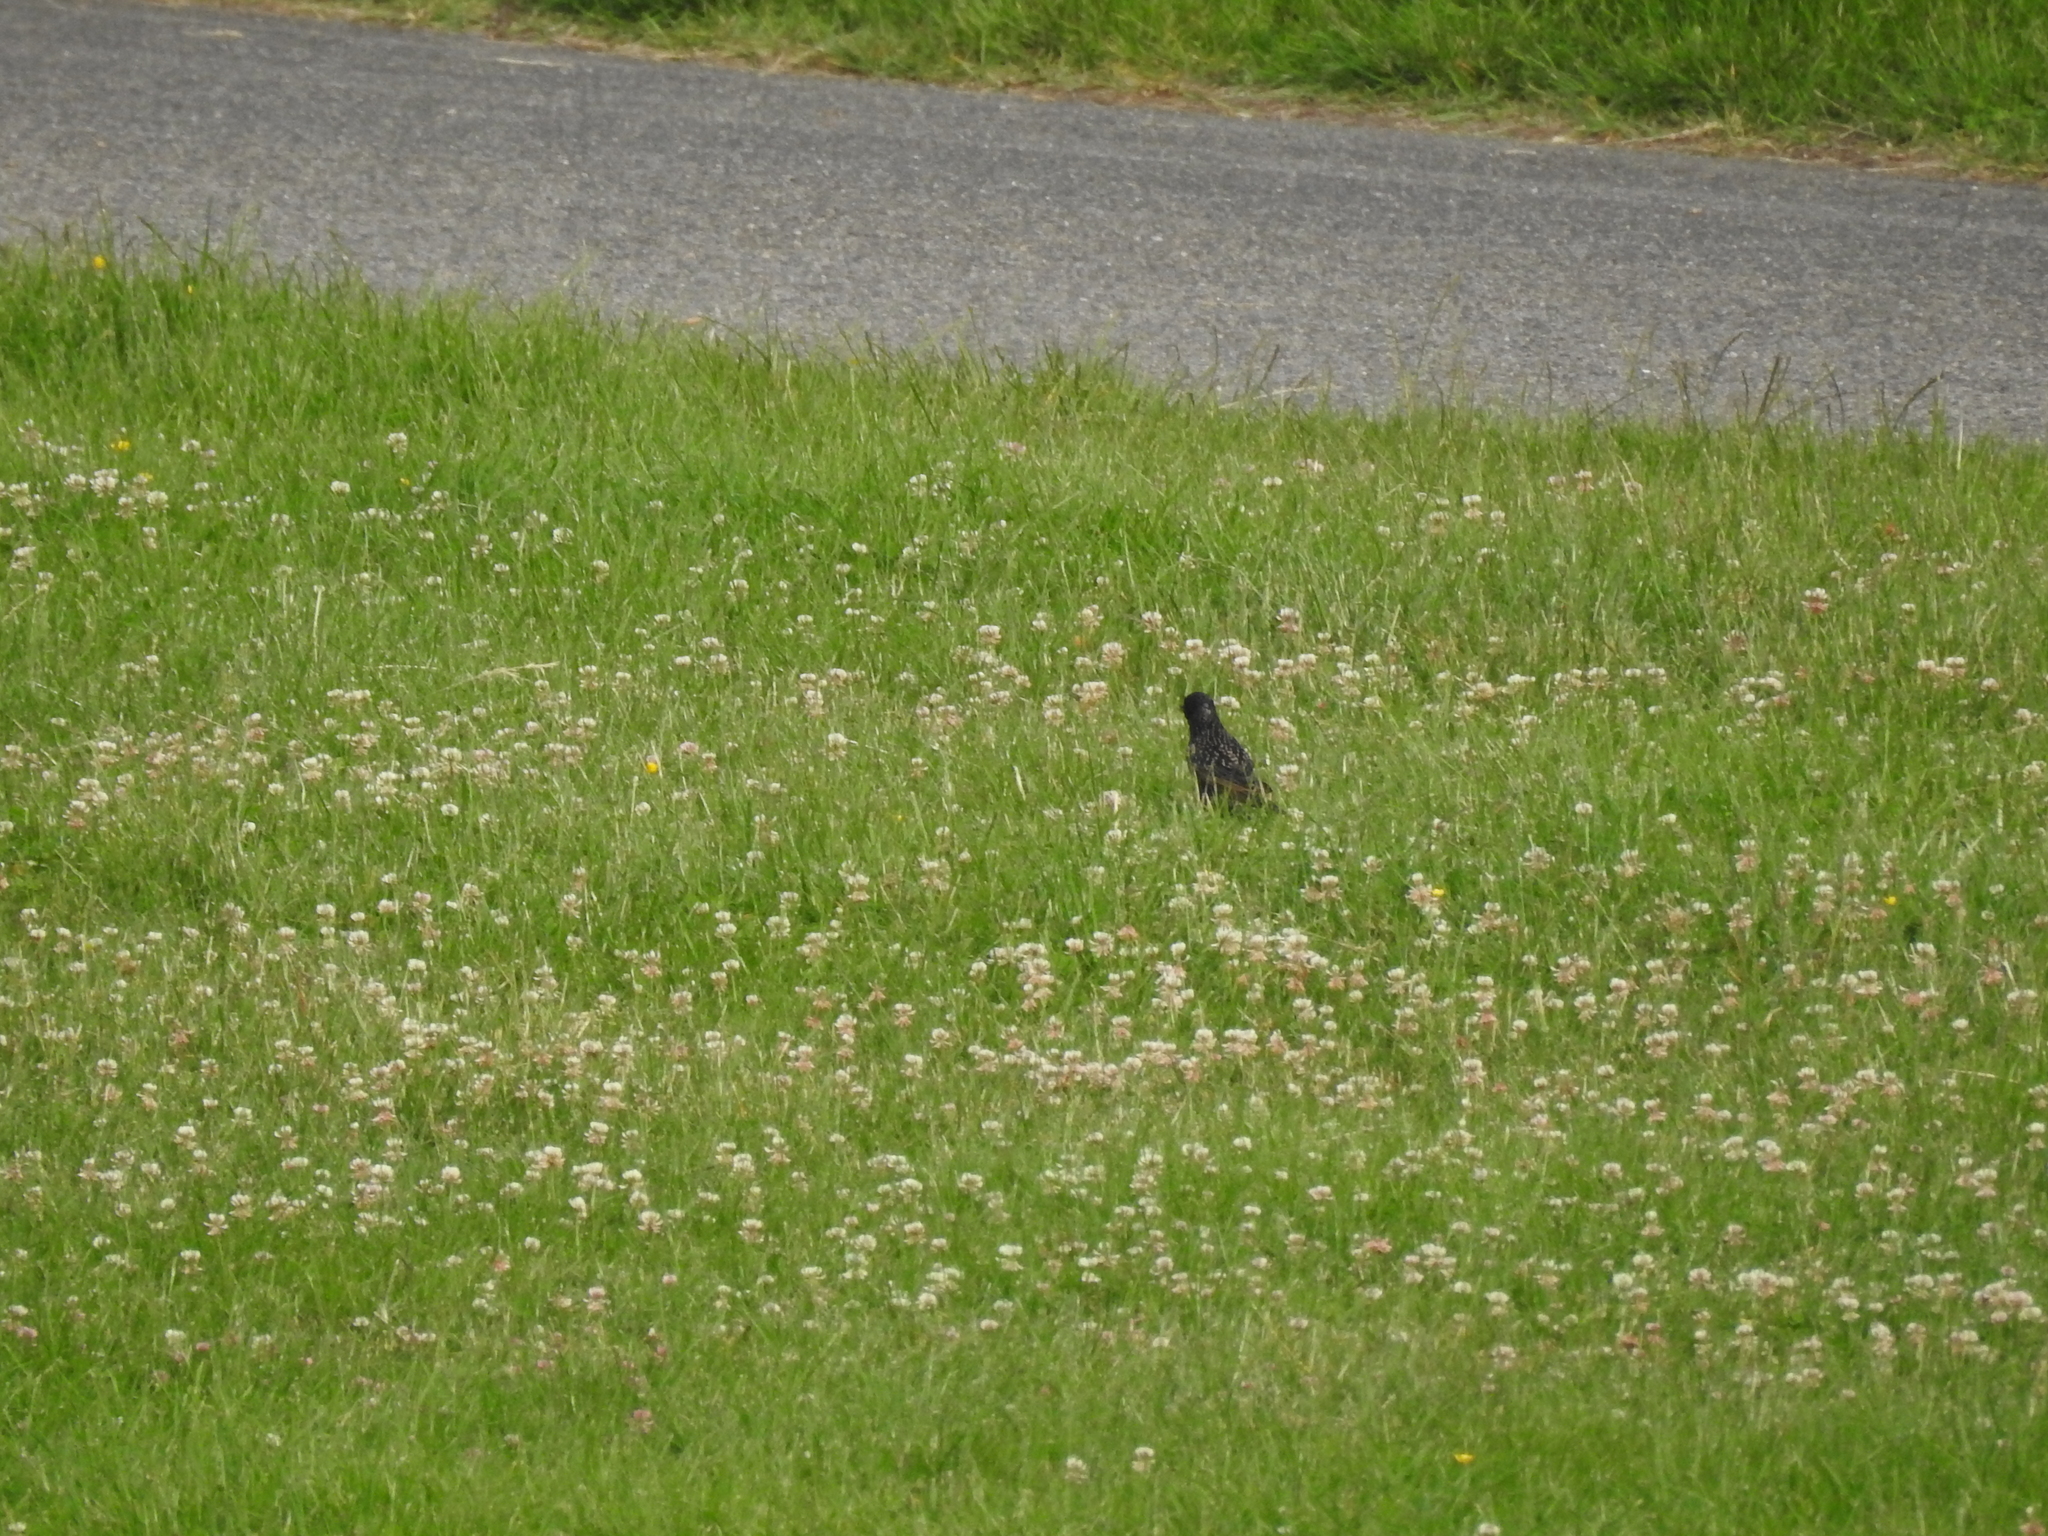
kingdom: Animalia
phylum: Chordata
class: Aves
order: Passeriformes
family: Sturnidae
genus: Sturnus
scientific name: Sturnus vulgaris
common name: Common starling
